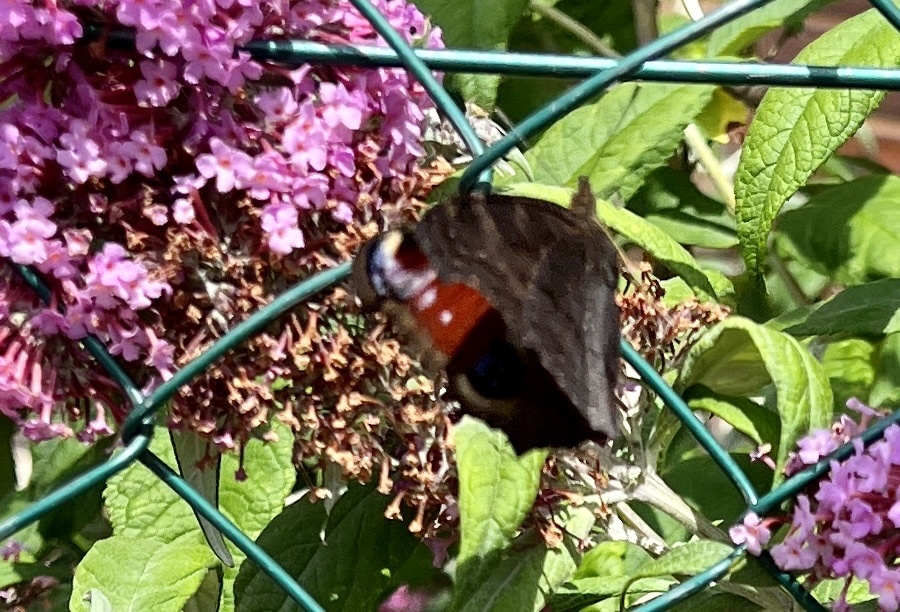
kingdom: Animalia
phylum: Arthropoda
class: Insecta
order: Lepidoptera
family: Nymphalidae
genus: Aglais
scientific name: Aglais io
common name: Peacock
